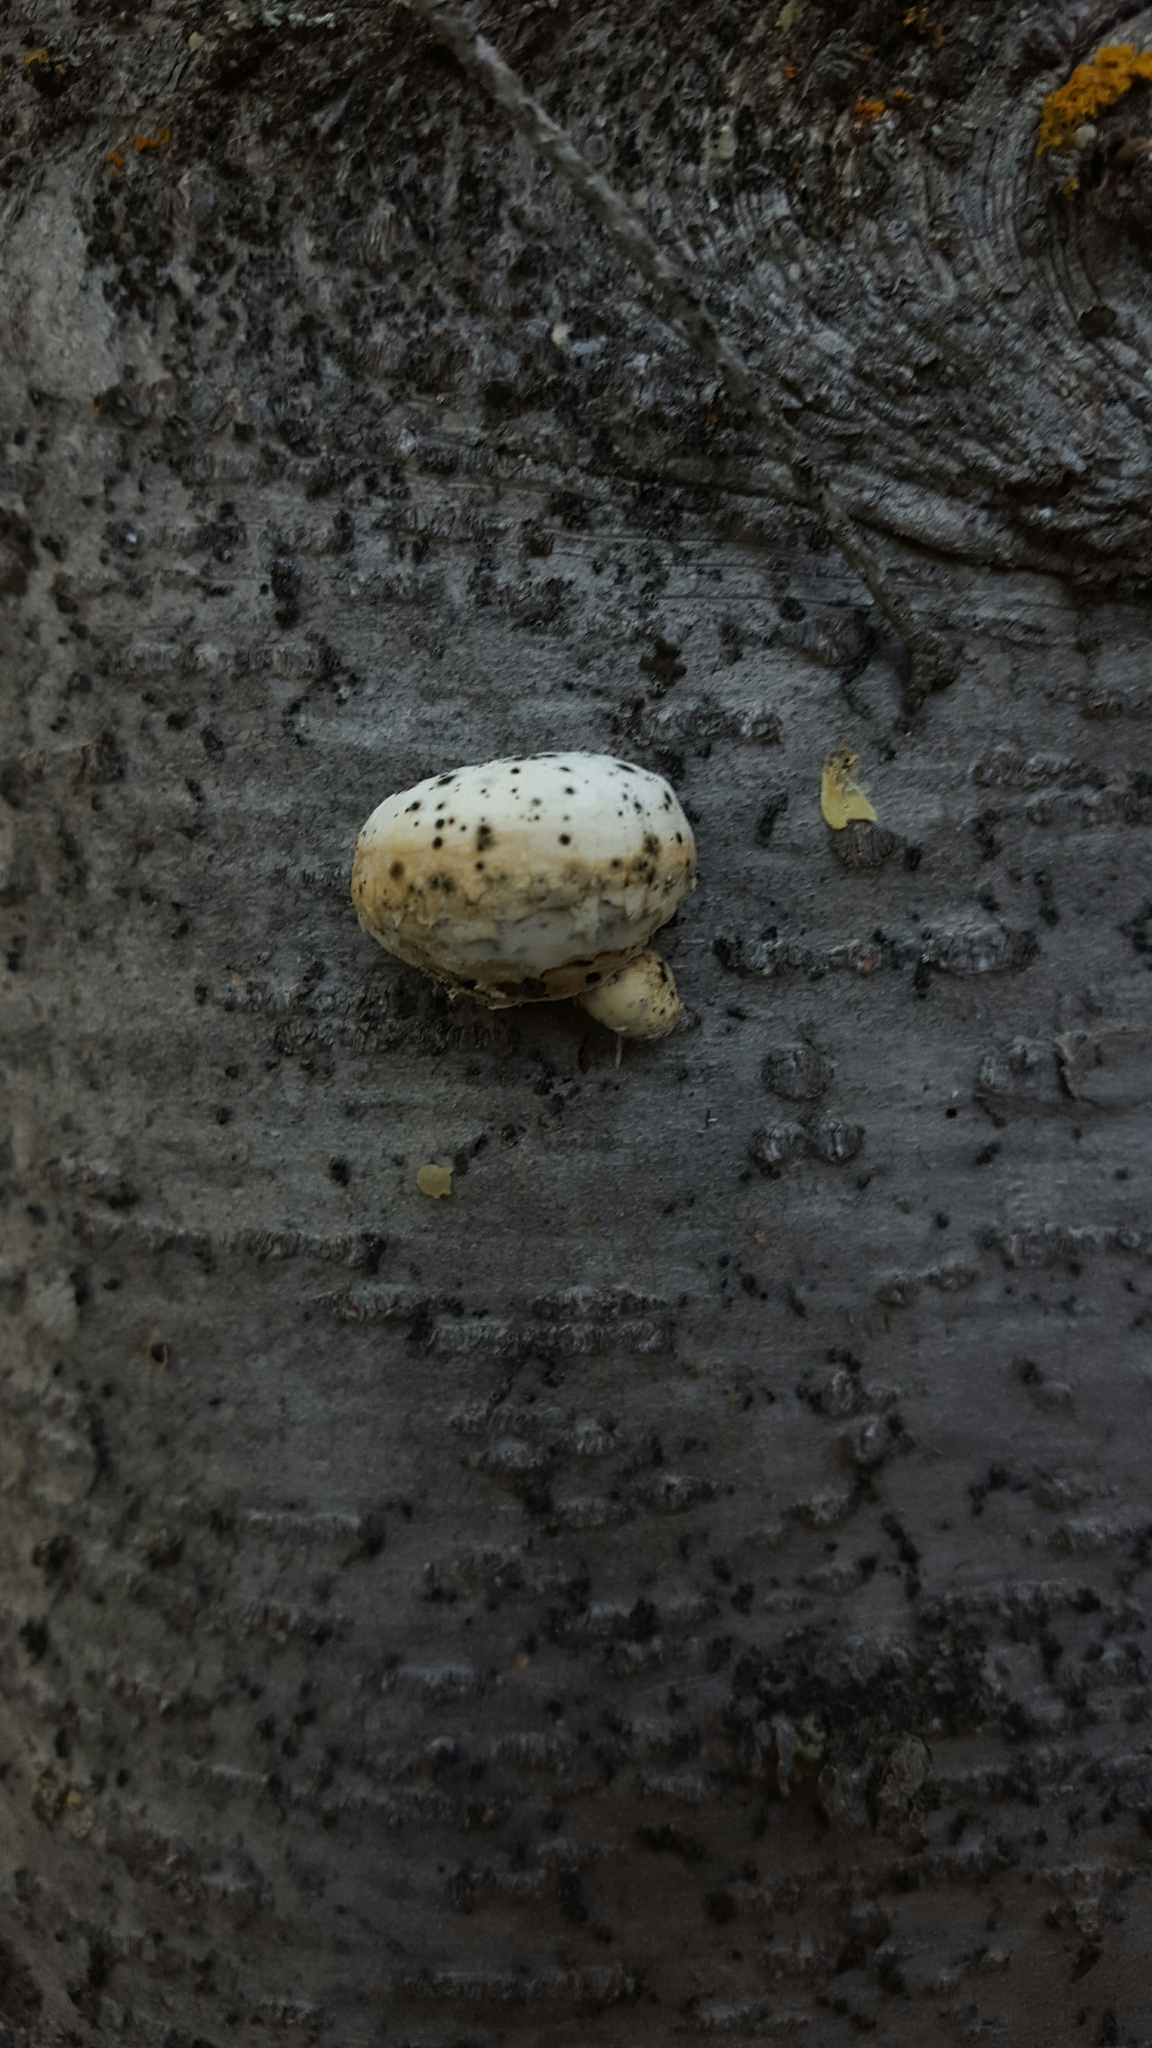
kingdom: Fungi
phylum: Basidiomycota
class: Agaricomycetes
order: Polyporales
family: Polyporaceae
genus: Cryptoporus
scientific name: Cryptoporus volvatus
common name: Veiled polypore
